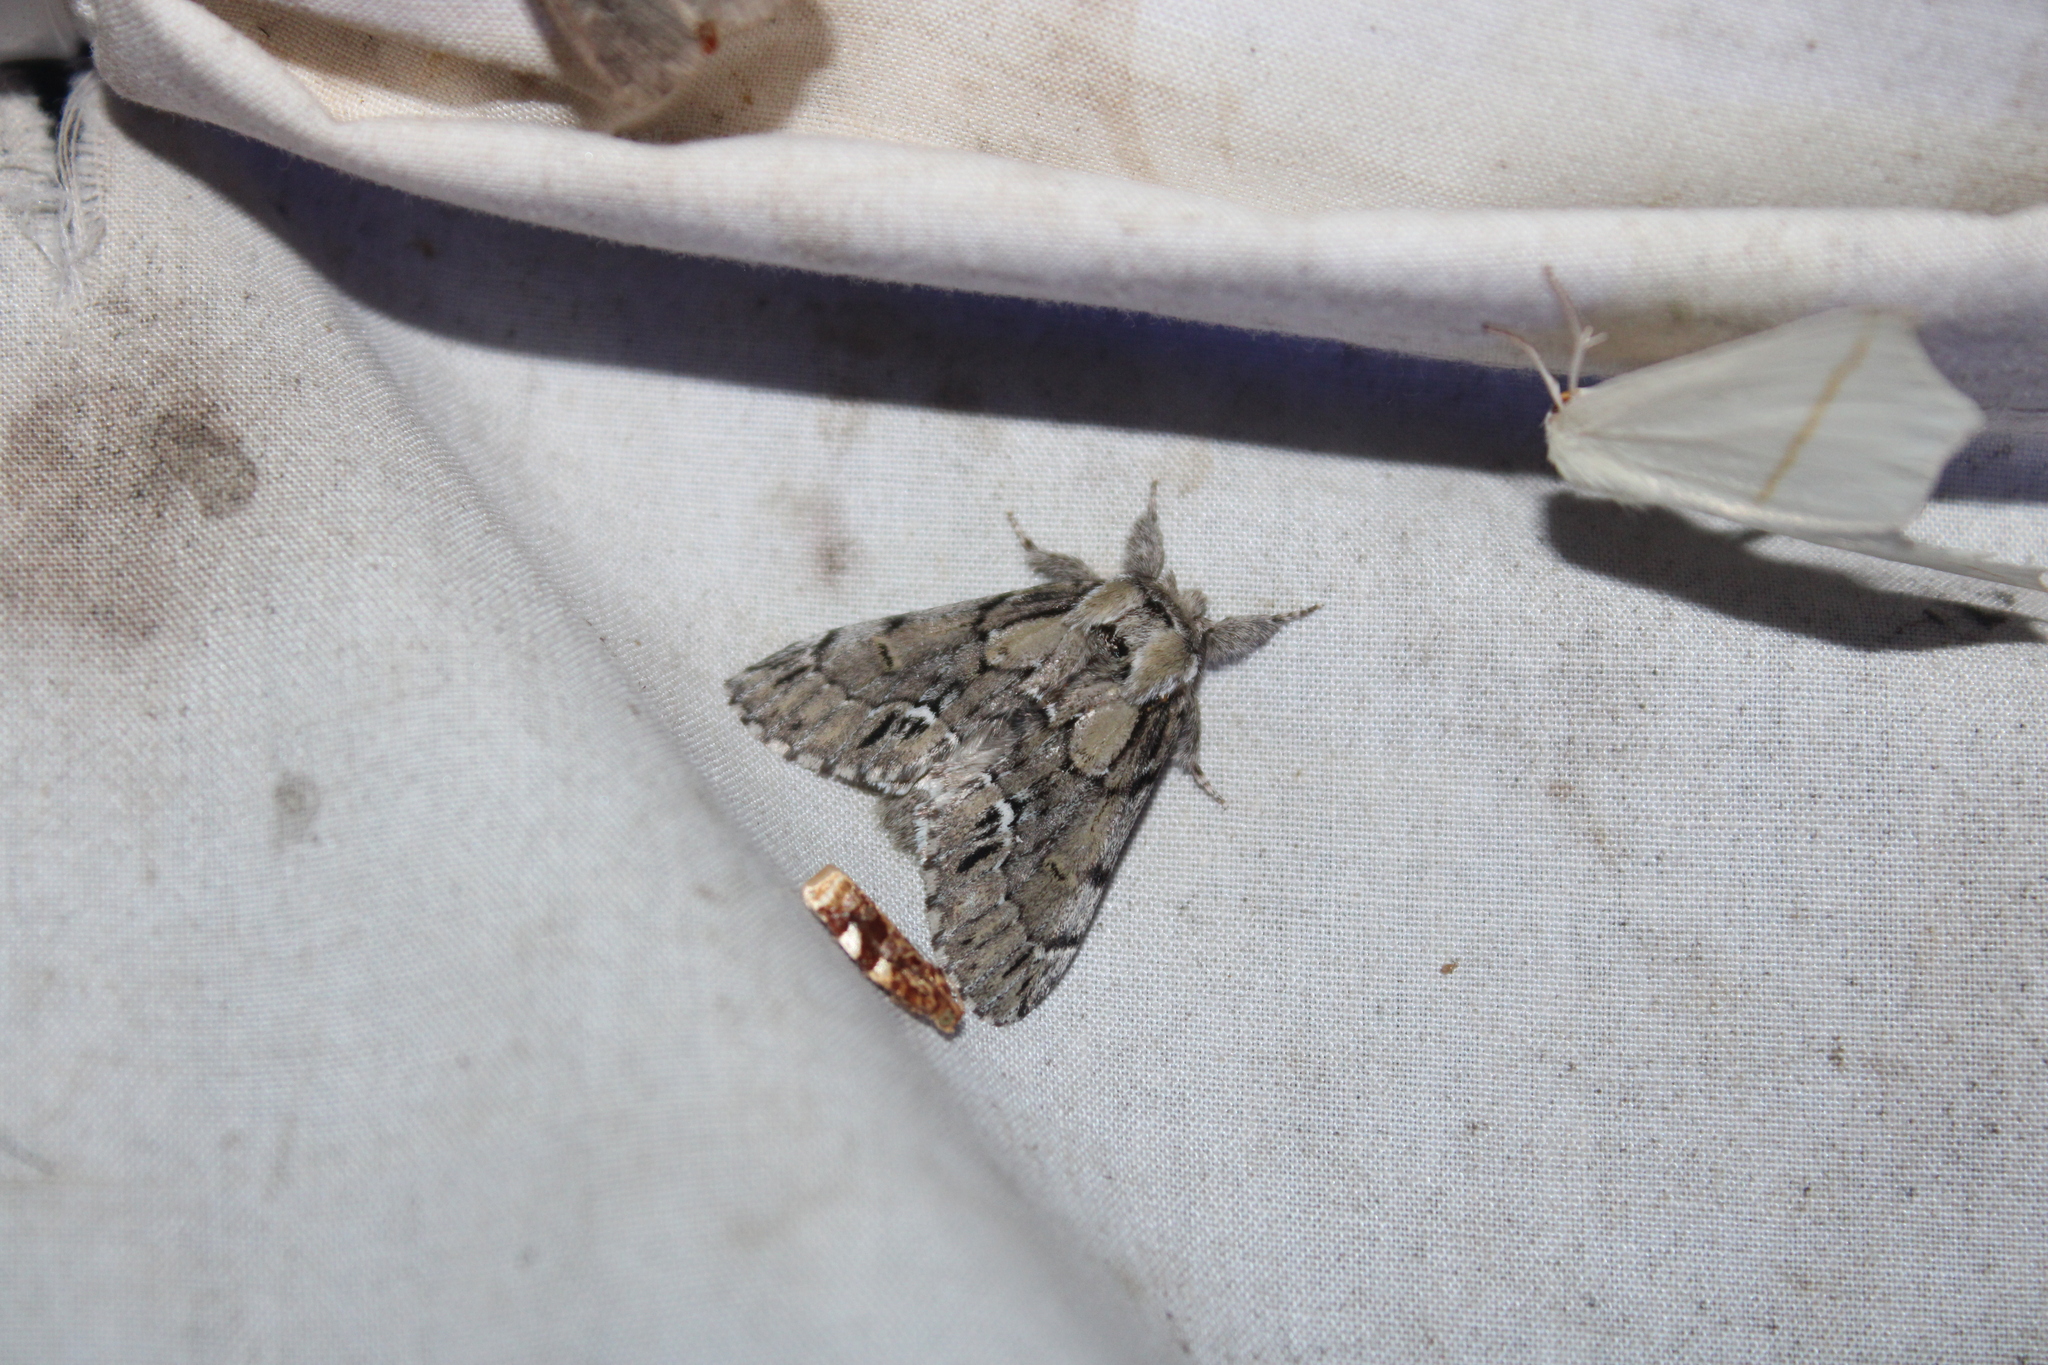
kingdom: Animalia
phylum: Arthropoda
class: Insecta
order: Lepidoptera
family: Notodontidae
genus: Paraeschra
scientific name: Paraeschra georgica
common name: Georgian prominent
